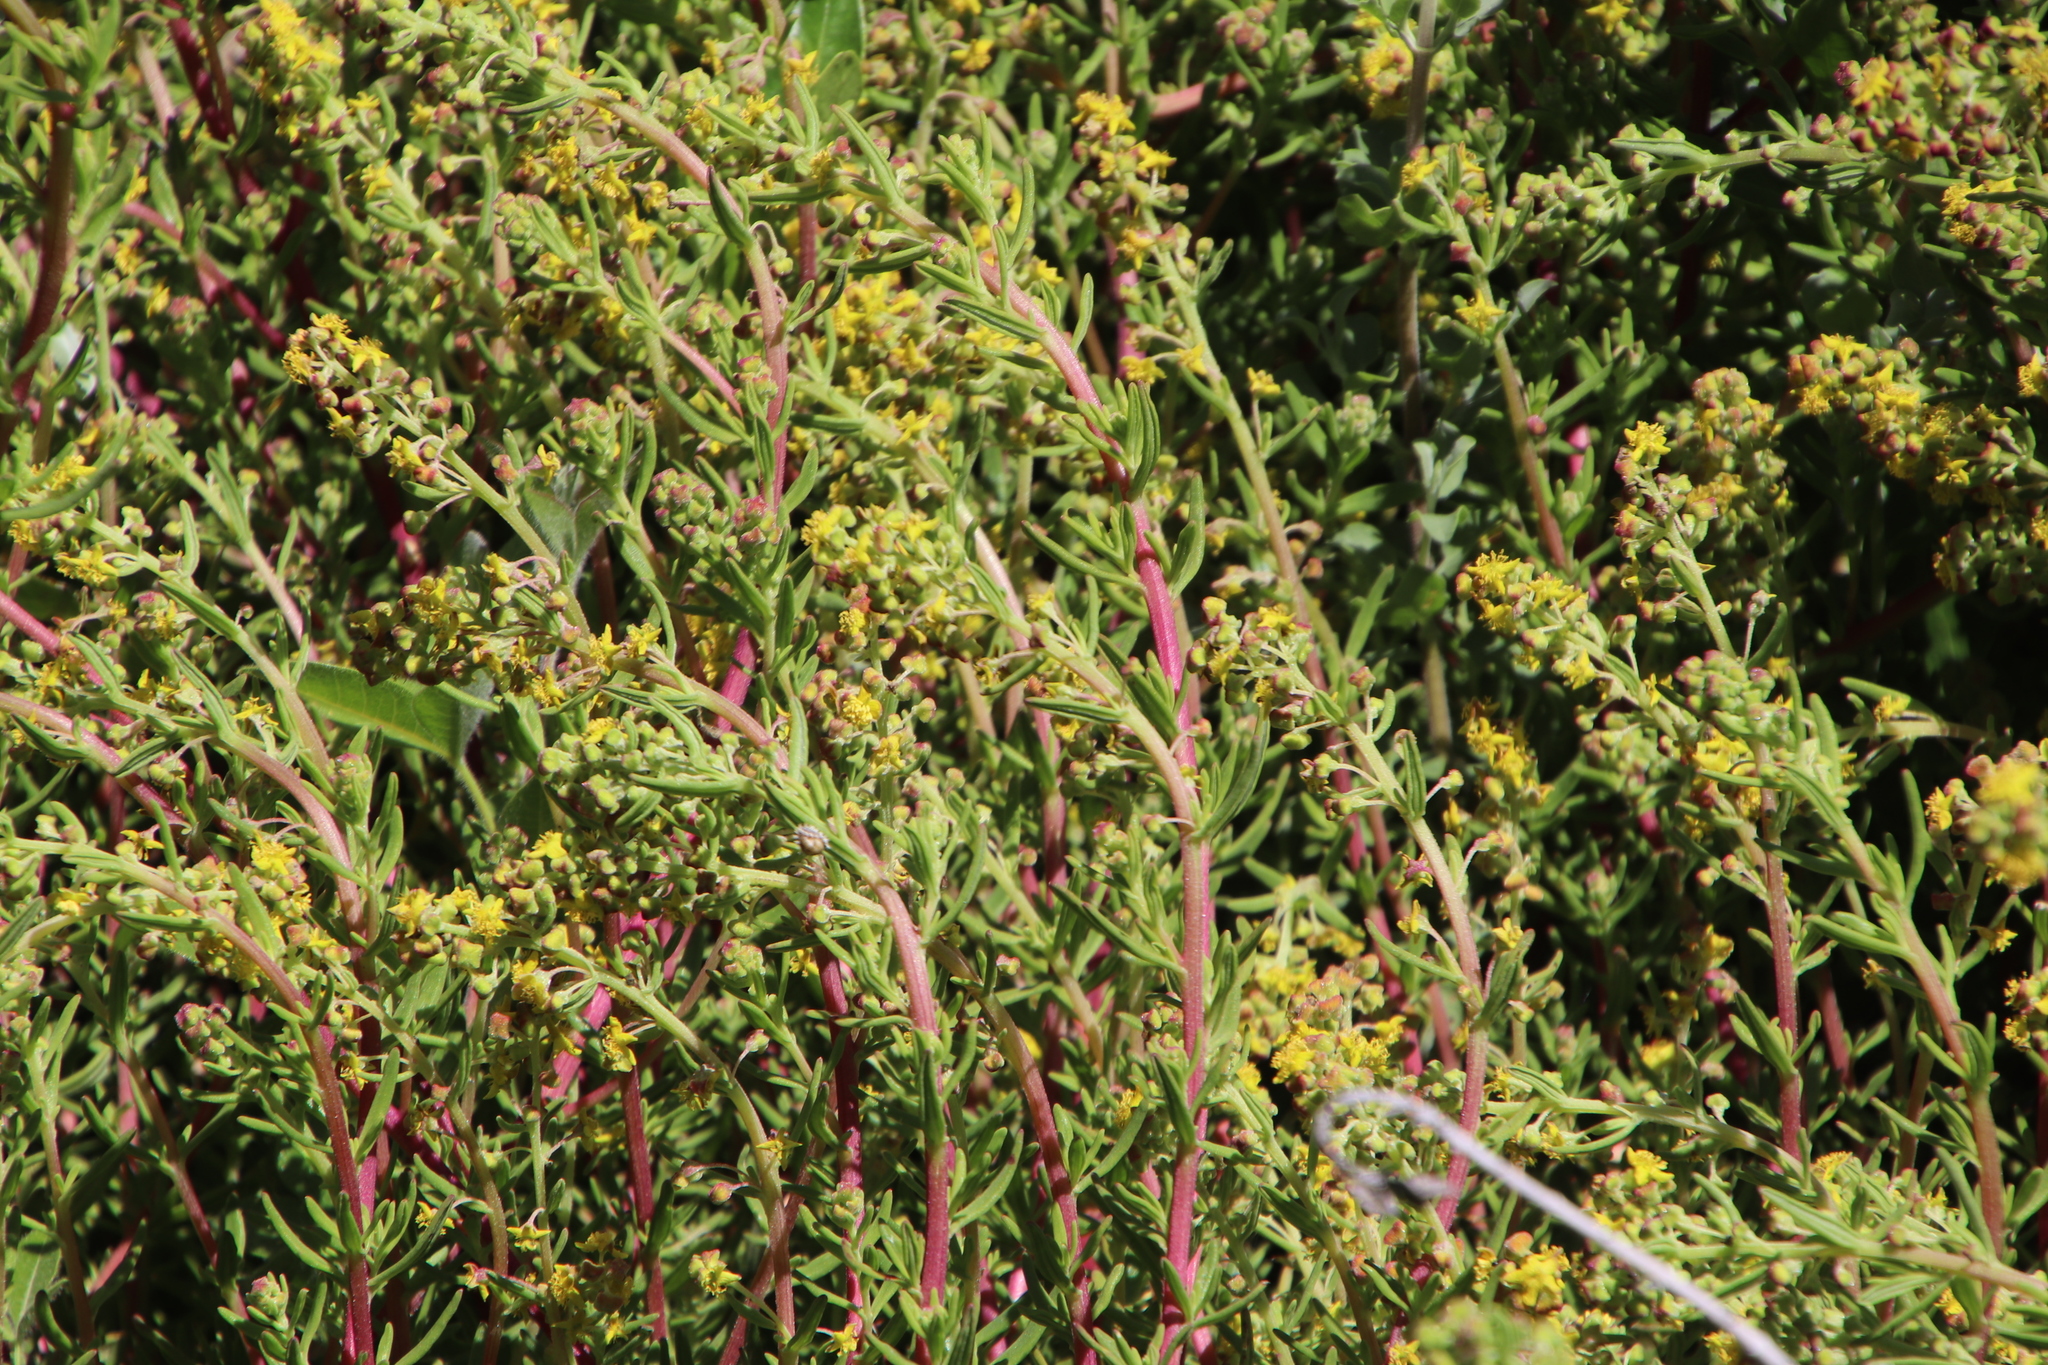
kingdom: Plantae
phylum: Tracheophyta
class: Magnoliopsida
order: Caryophyllales
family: Aizoaceae
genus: Tetragonia
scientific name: Tetragonia fruticosa
